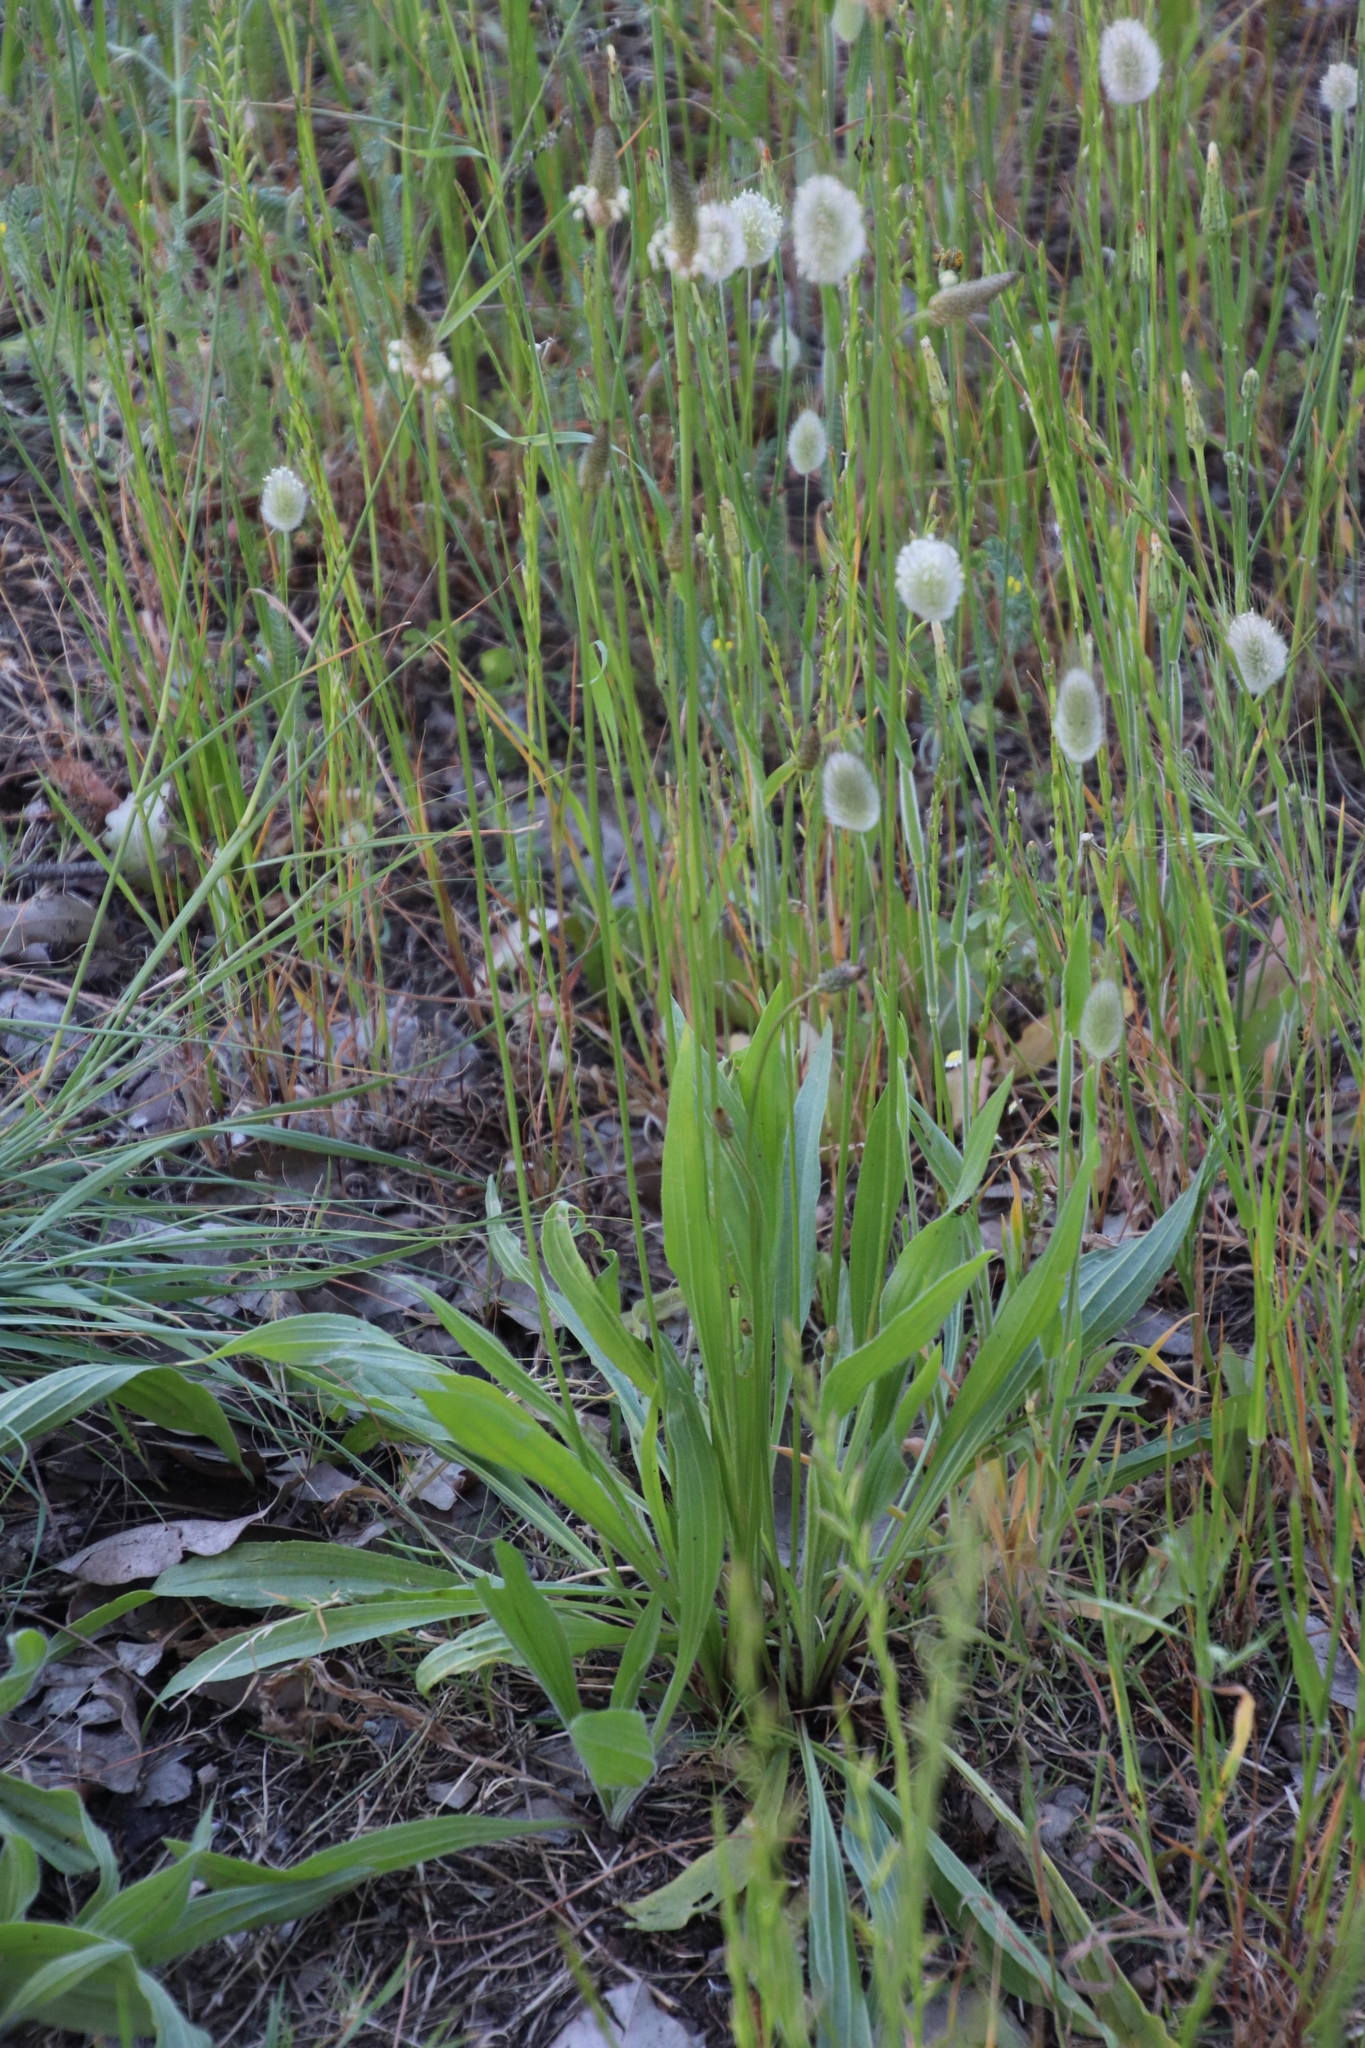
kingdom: Plantae
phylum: Tracheophyta
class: Magnoliopsida
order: Lamiales
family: Plantaginaceae
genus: Plantago
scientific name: Plantago lanceolata
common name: Ribwort plantain
